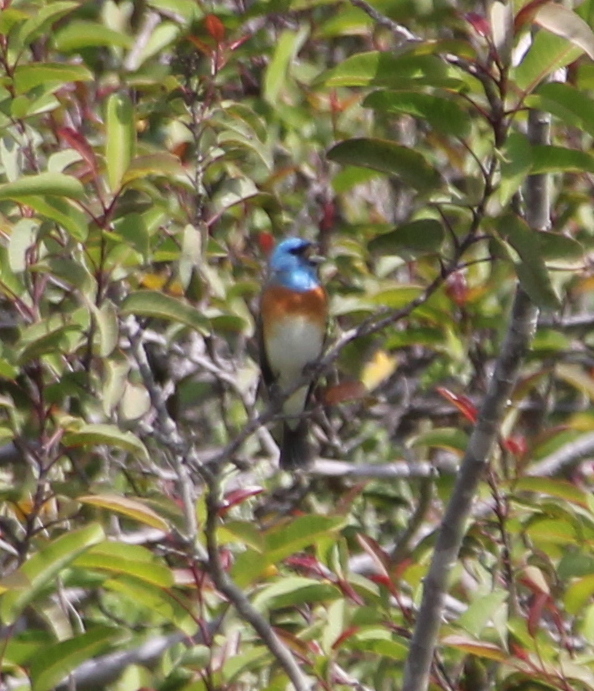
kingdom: Animalia
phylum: Chordata
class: Aves
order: Passeriformes
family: Cardinalidae
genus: Passerina
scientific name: Passerina amoena
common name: Lazuli bunting
